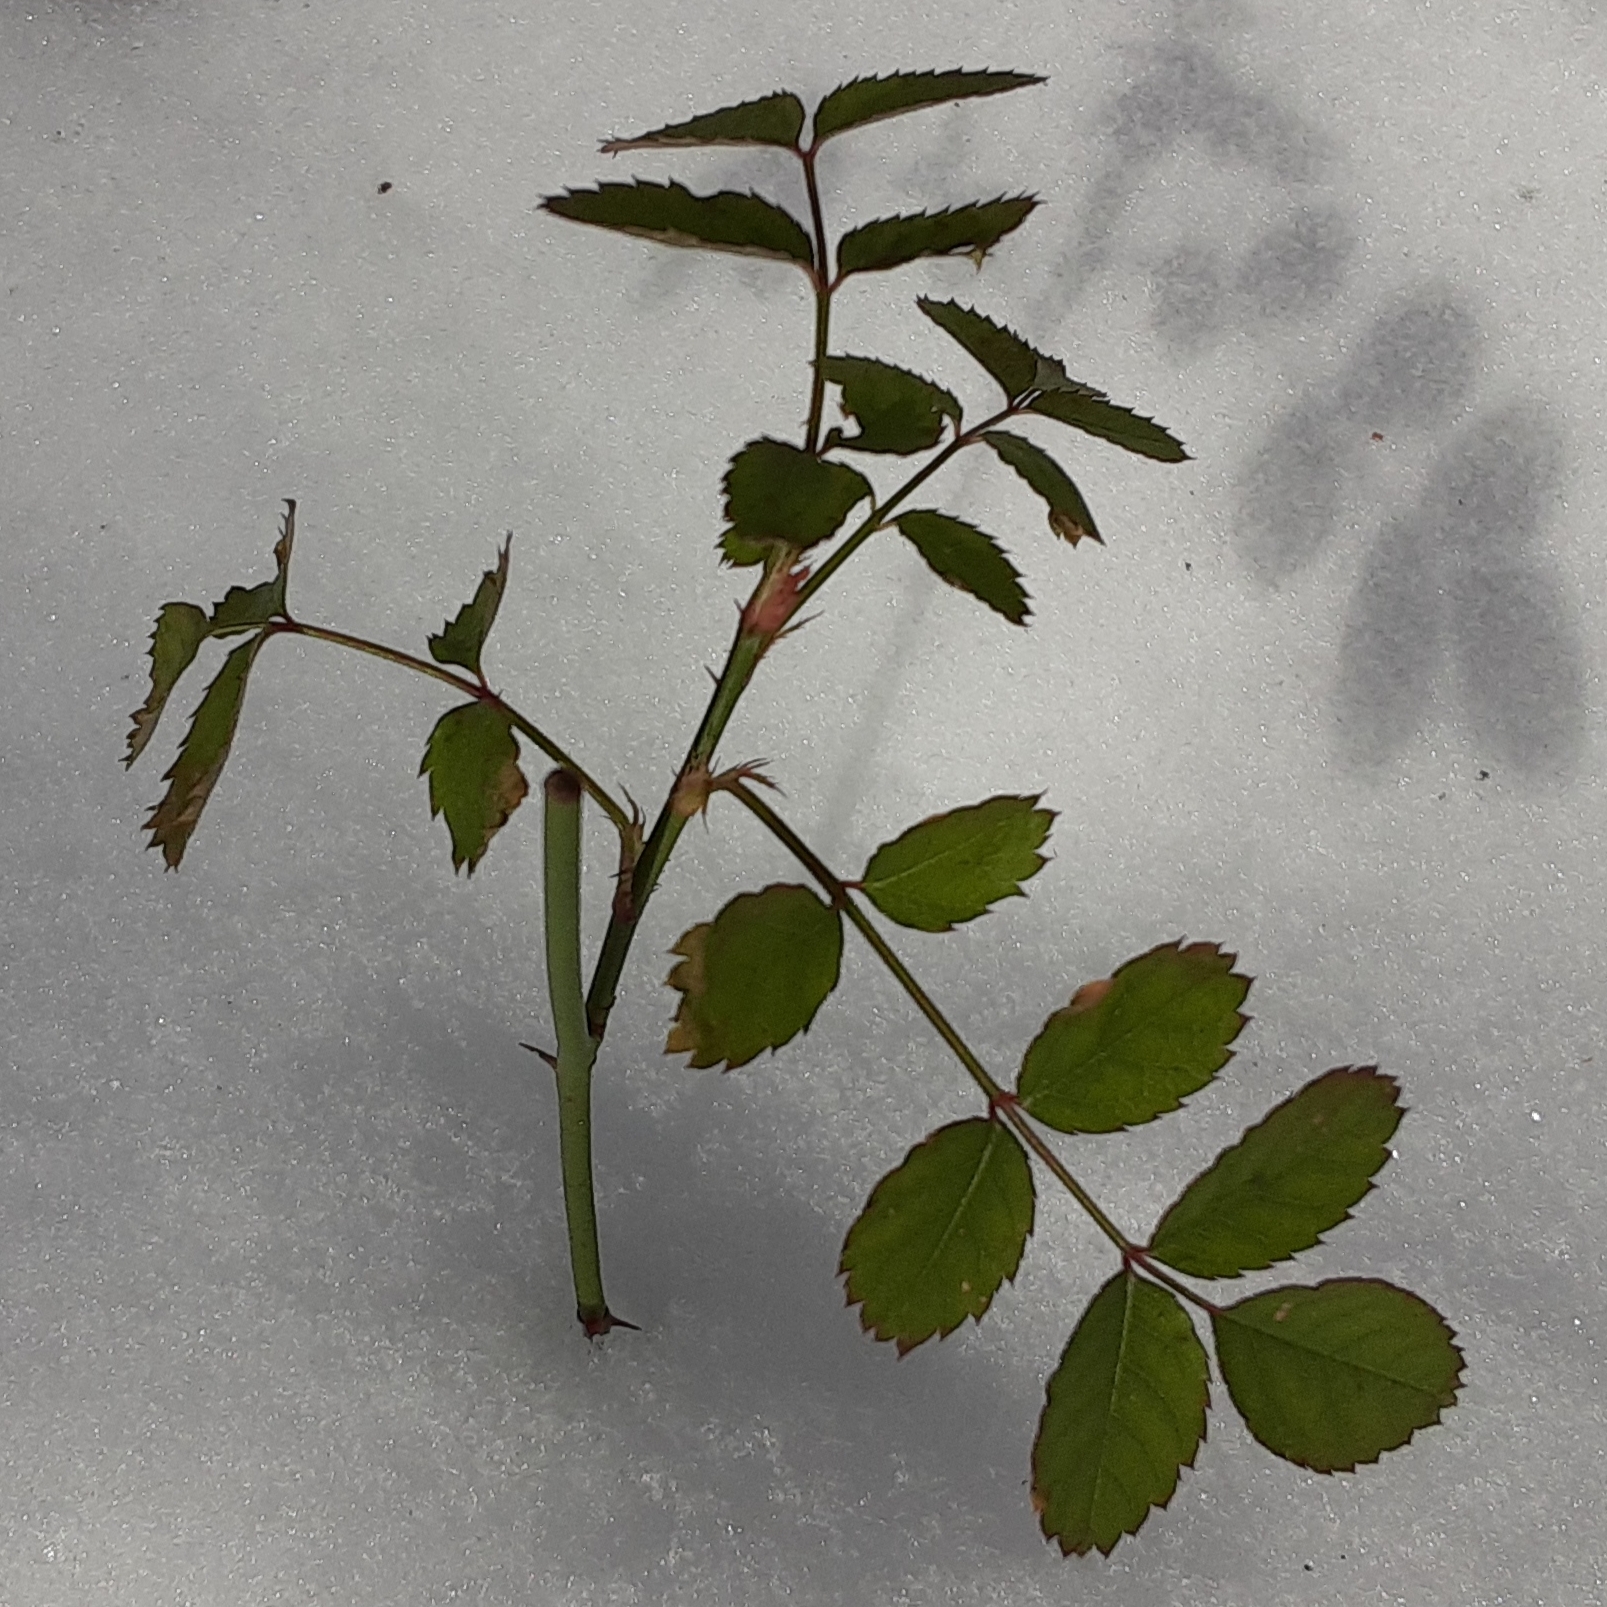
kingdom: Plantae
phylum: Tracheophyta
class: Magnoliopsida
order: Rosales
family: Rosaceae
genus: Rosa
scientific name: Rosa multiflora
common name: Multiflora rose
